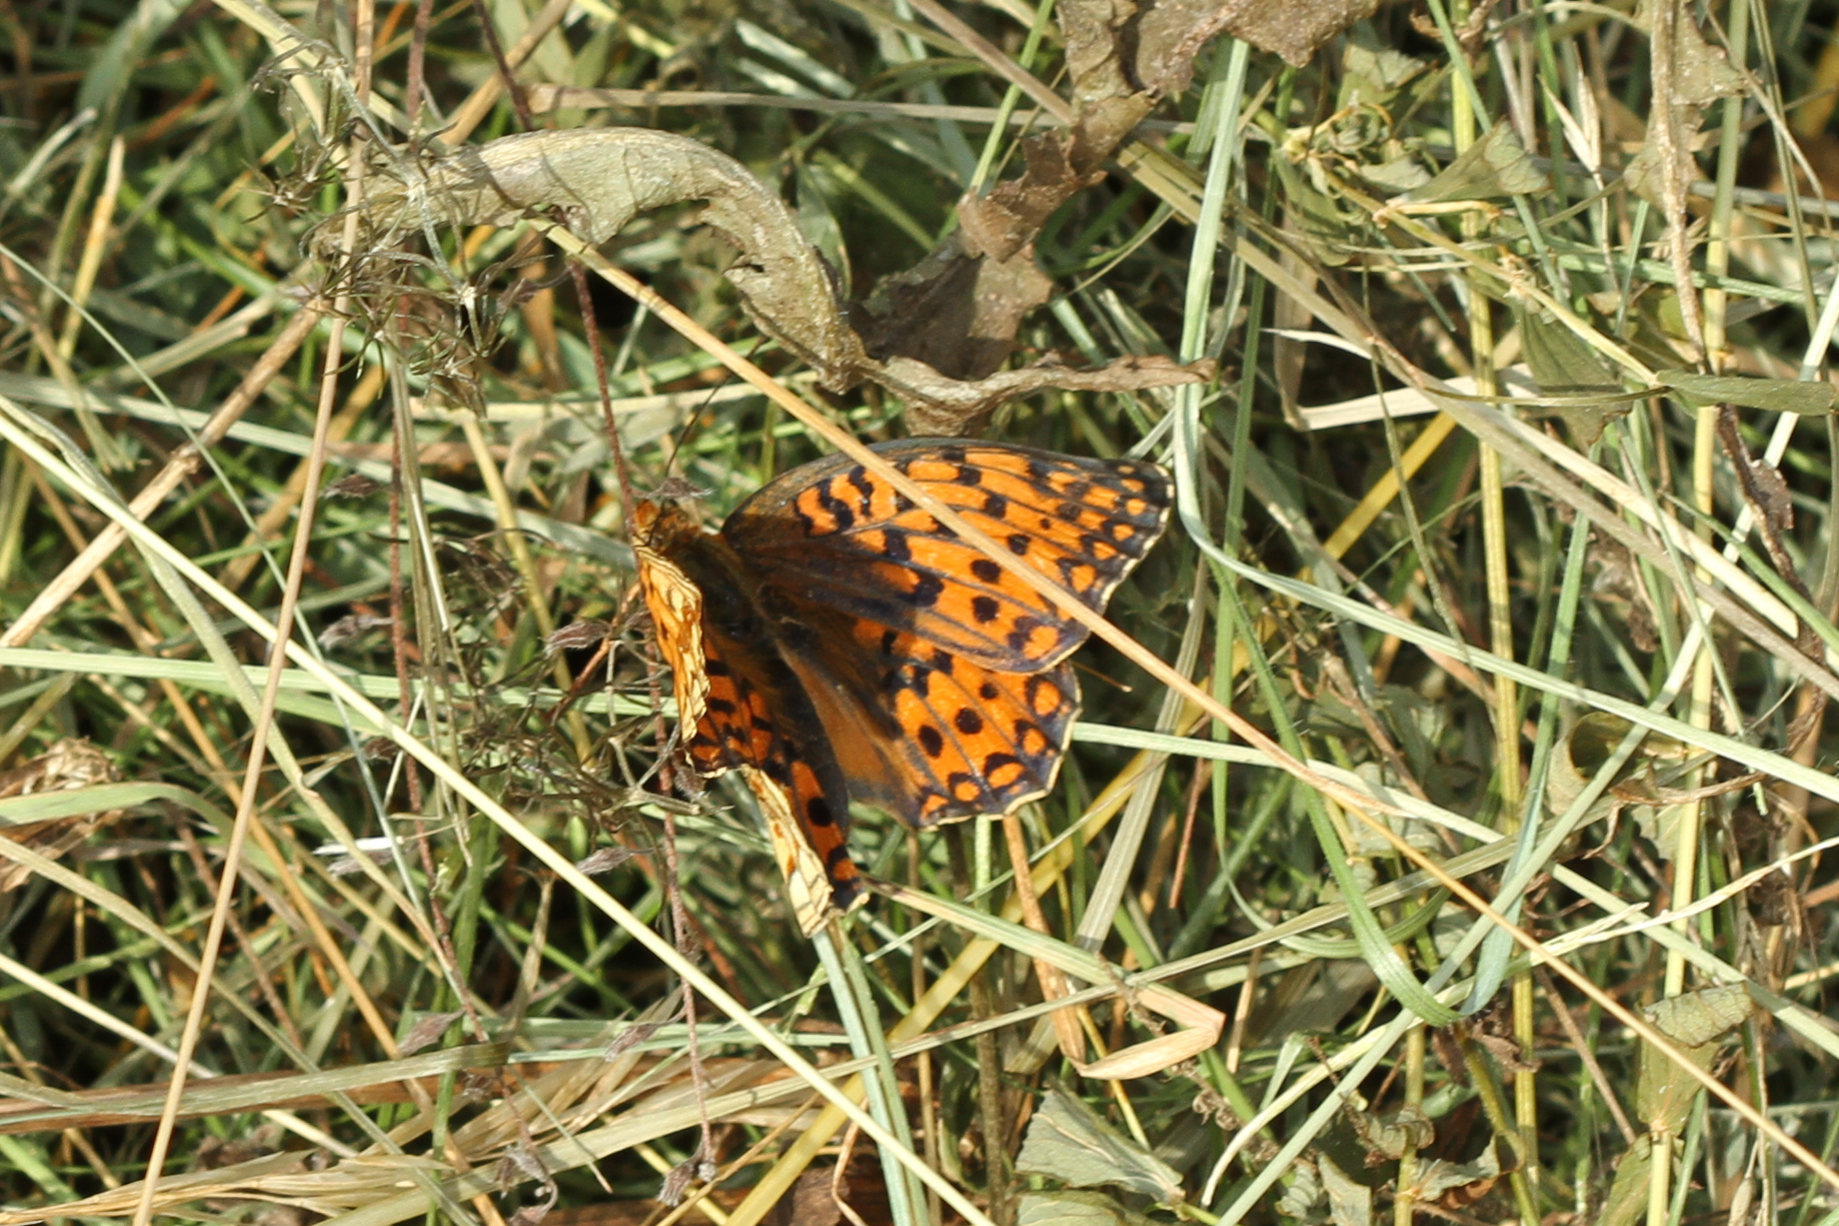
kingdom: Animalia
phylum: Arthropoda
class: Insecta
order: Lepidoptera
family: Nymphalidae
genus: Fabriciana
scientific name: Fabriciana niobe
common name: Niobe fritillary
